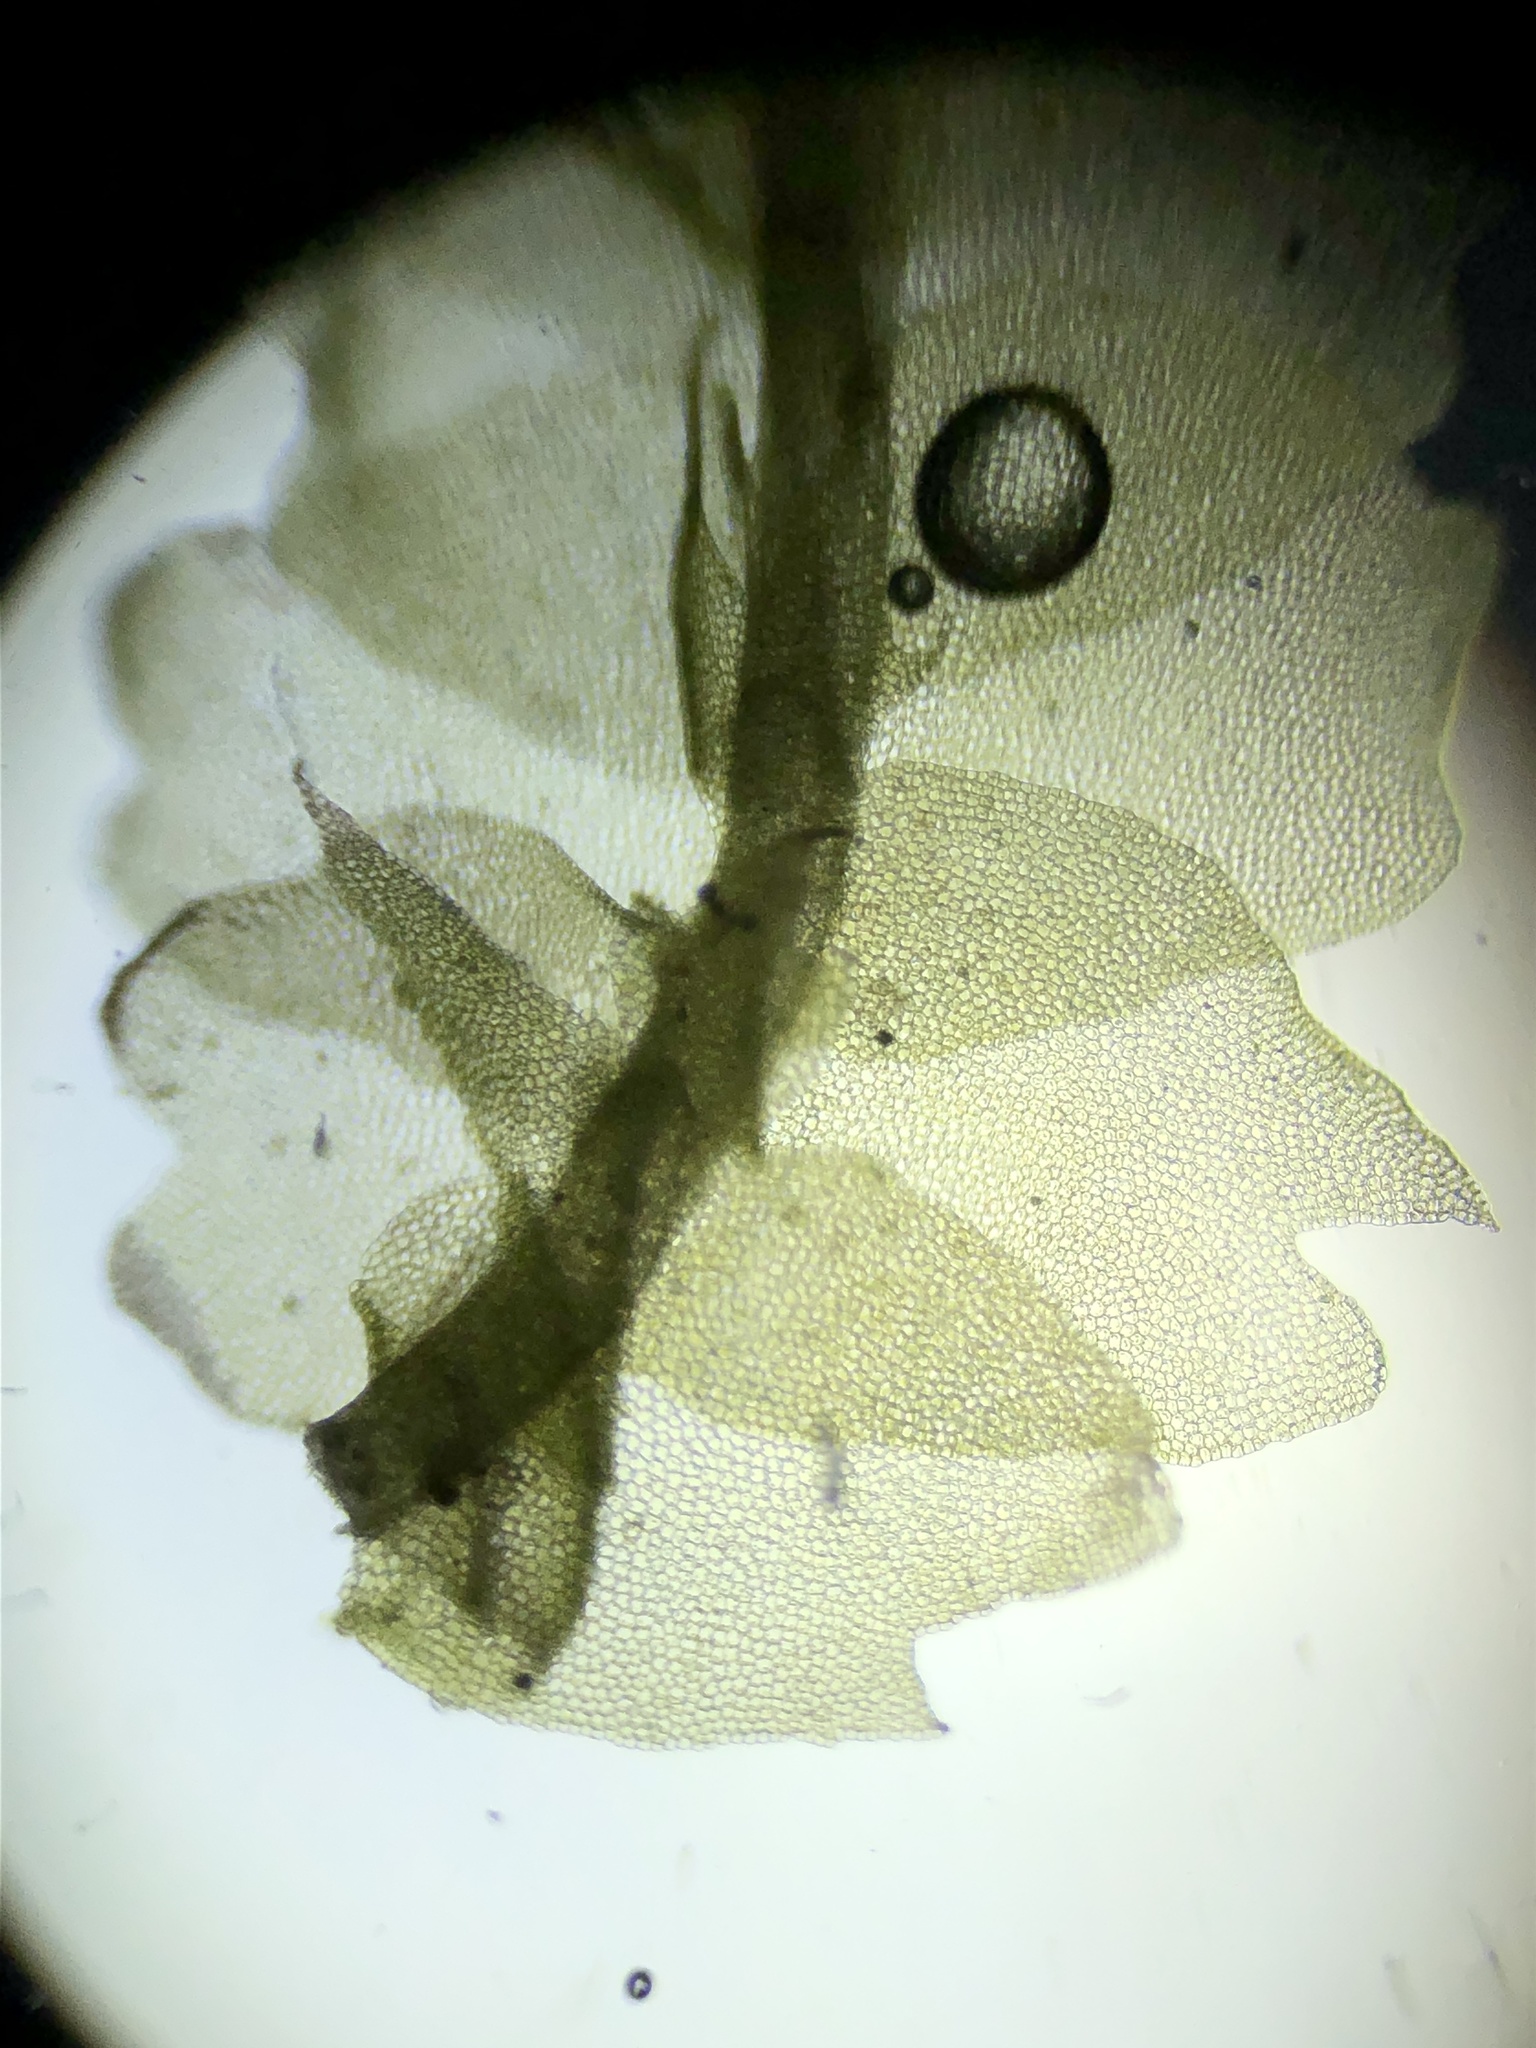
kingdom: Plantae
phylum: Marchantiophyta
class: Jungermanniopsida
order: Jungermanniales
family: Lophocoleaceae
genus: Lophocolea
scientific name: Lophocolea semiteres
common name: Southern crestwort
